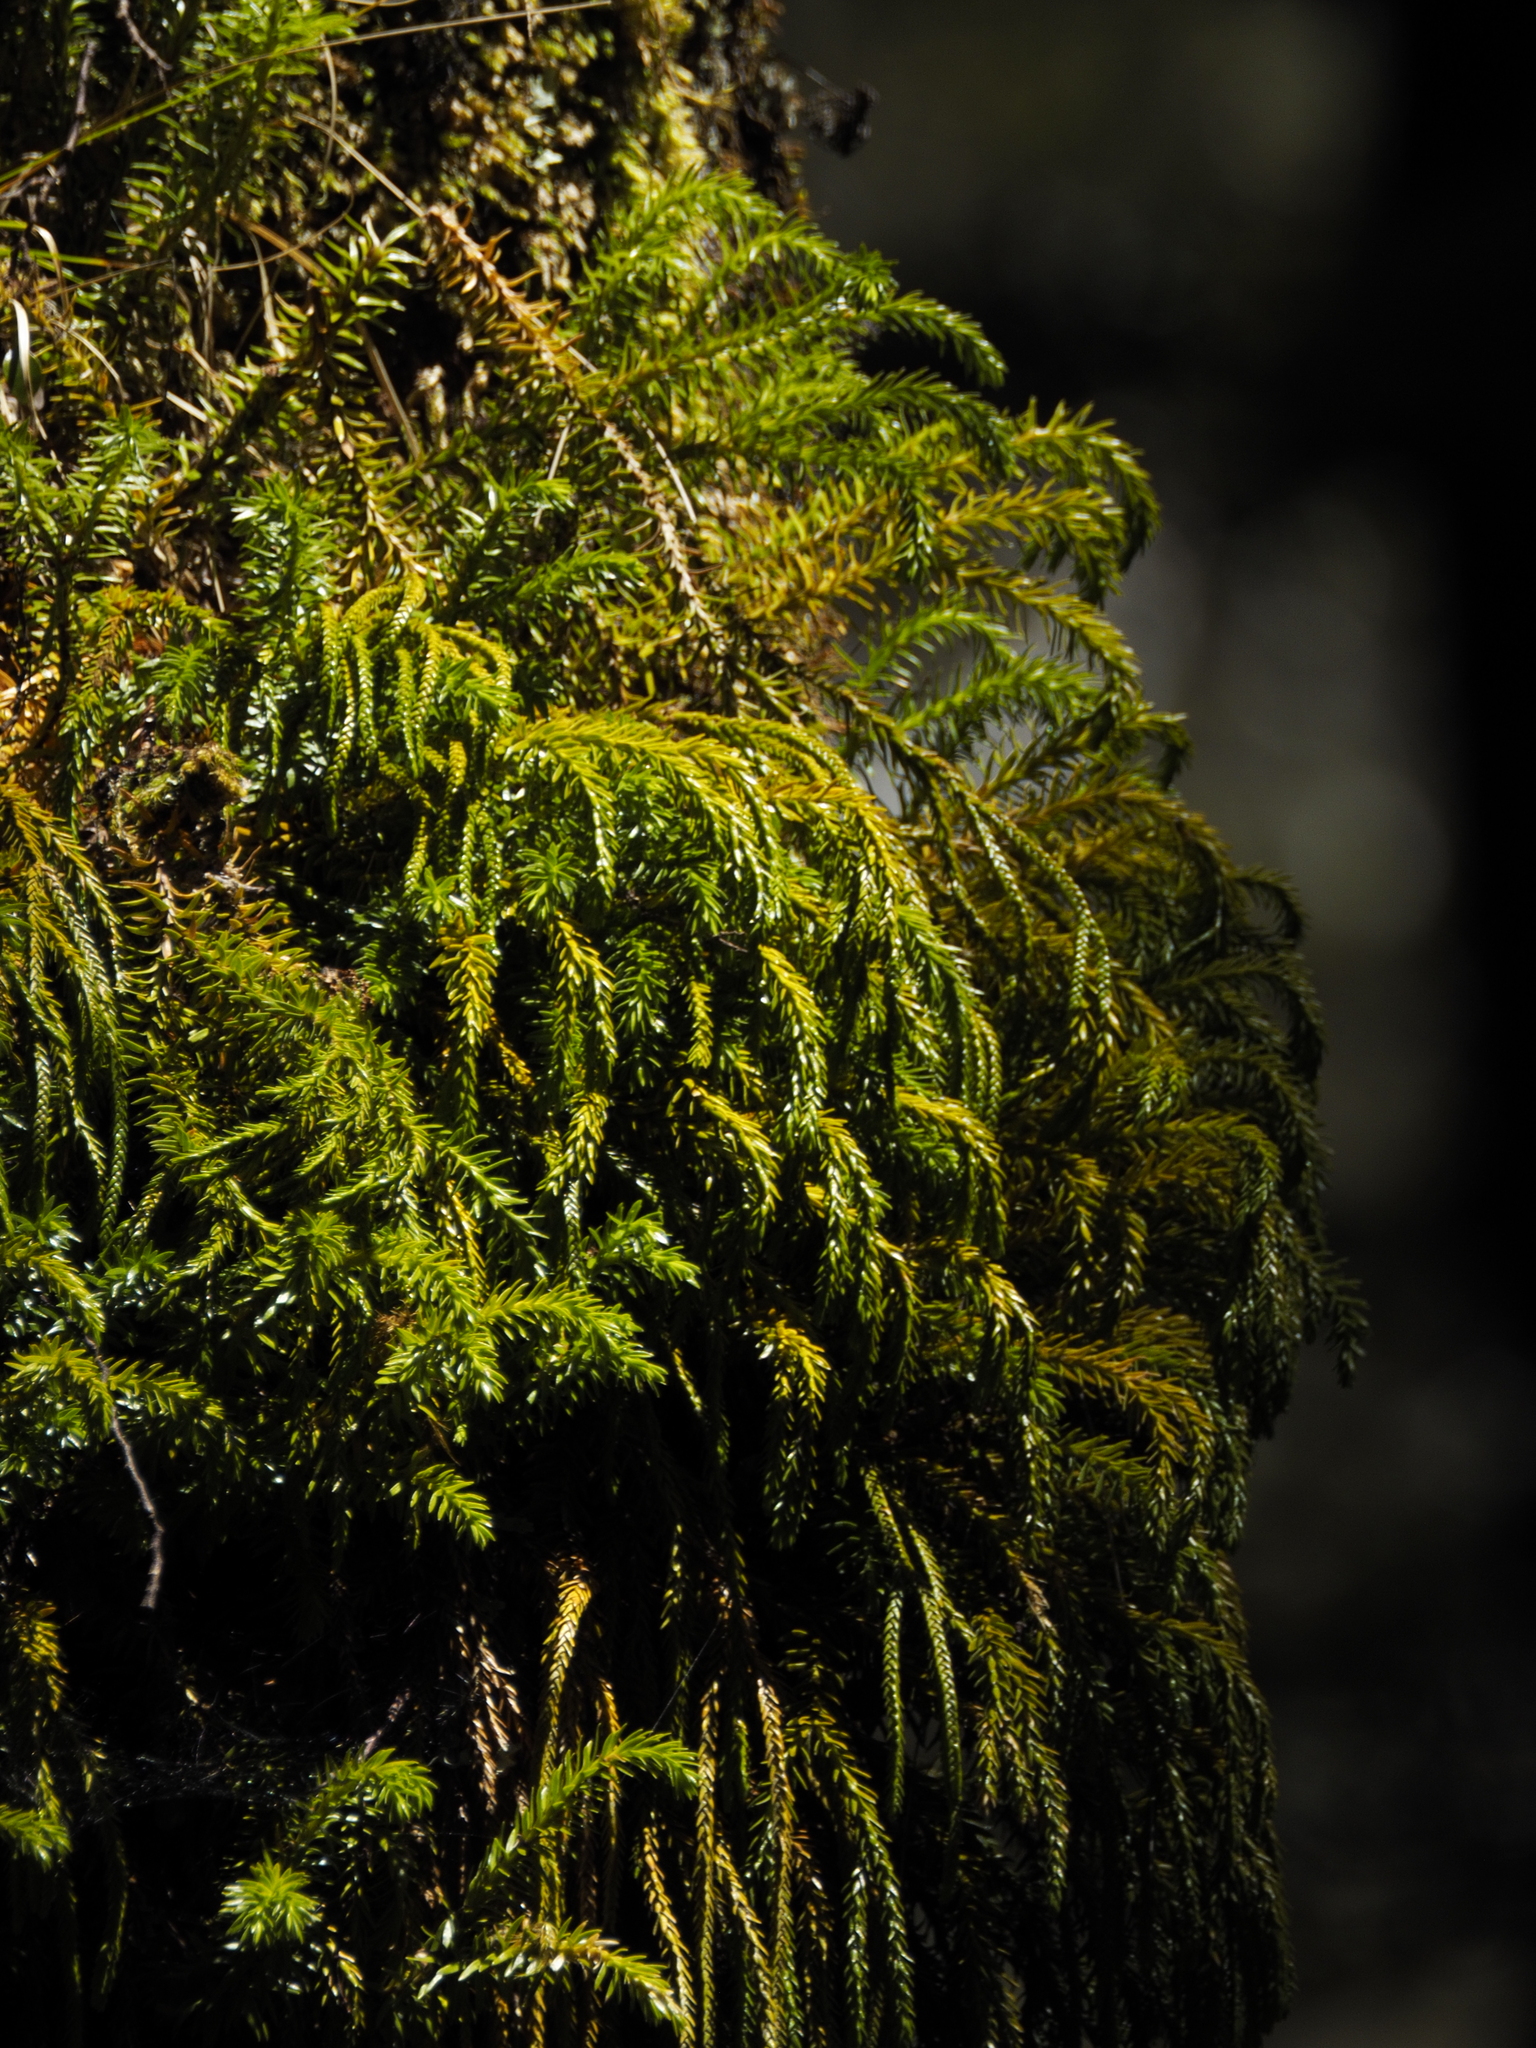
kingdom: Plantae
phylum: Tracheophyta
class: Lycopodiopsida
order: Lycopodiales
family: Lycopodiaceae
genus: Phlegmariurus
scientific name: Phlegmariurus varius
